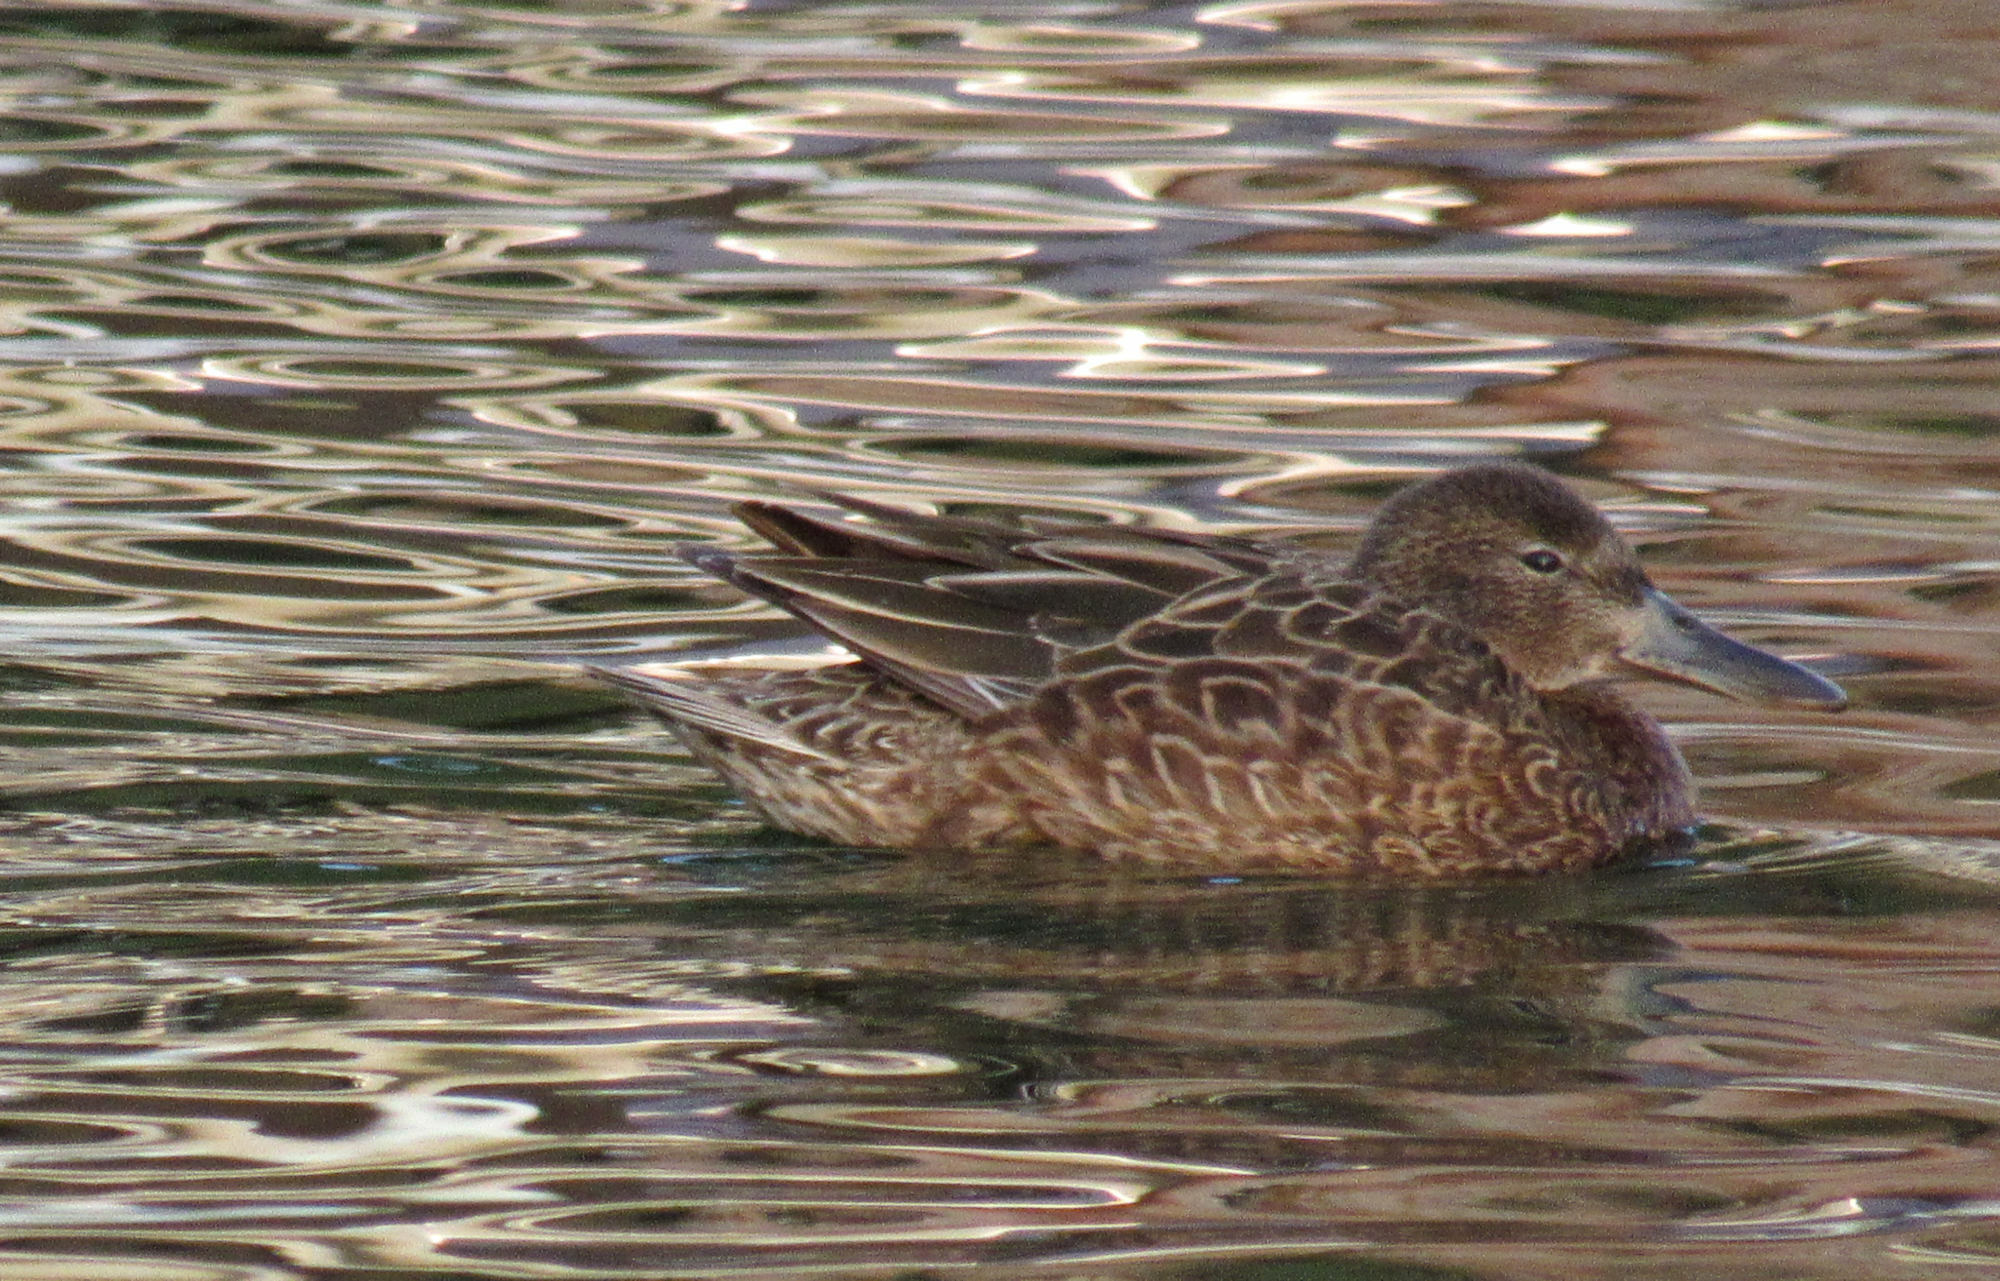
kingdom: Animalia
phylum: Chordata
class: Aves
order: Anseriformes
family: Anatidae
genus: Spatula
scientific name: Spatula cyanoptera
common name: Cinnamon teal
